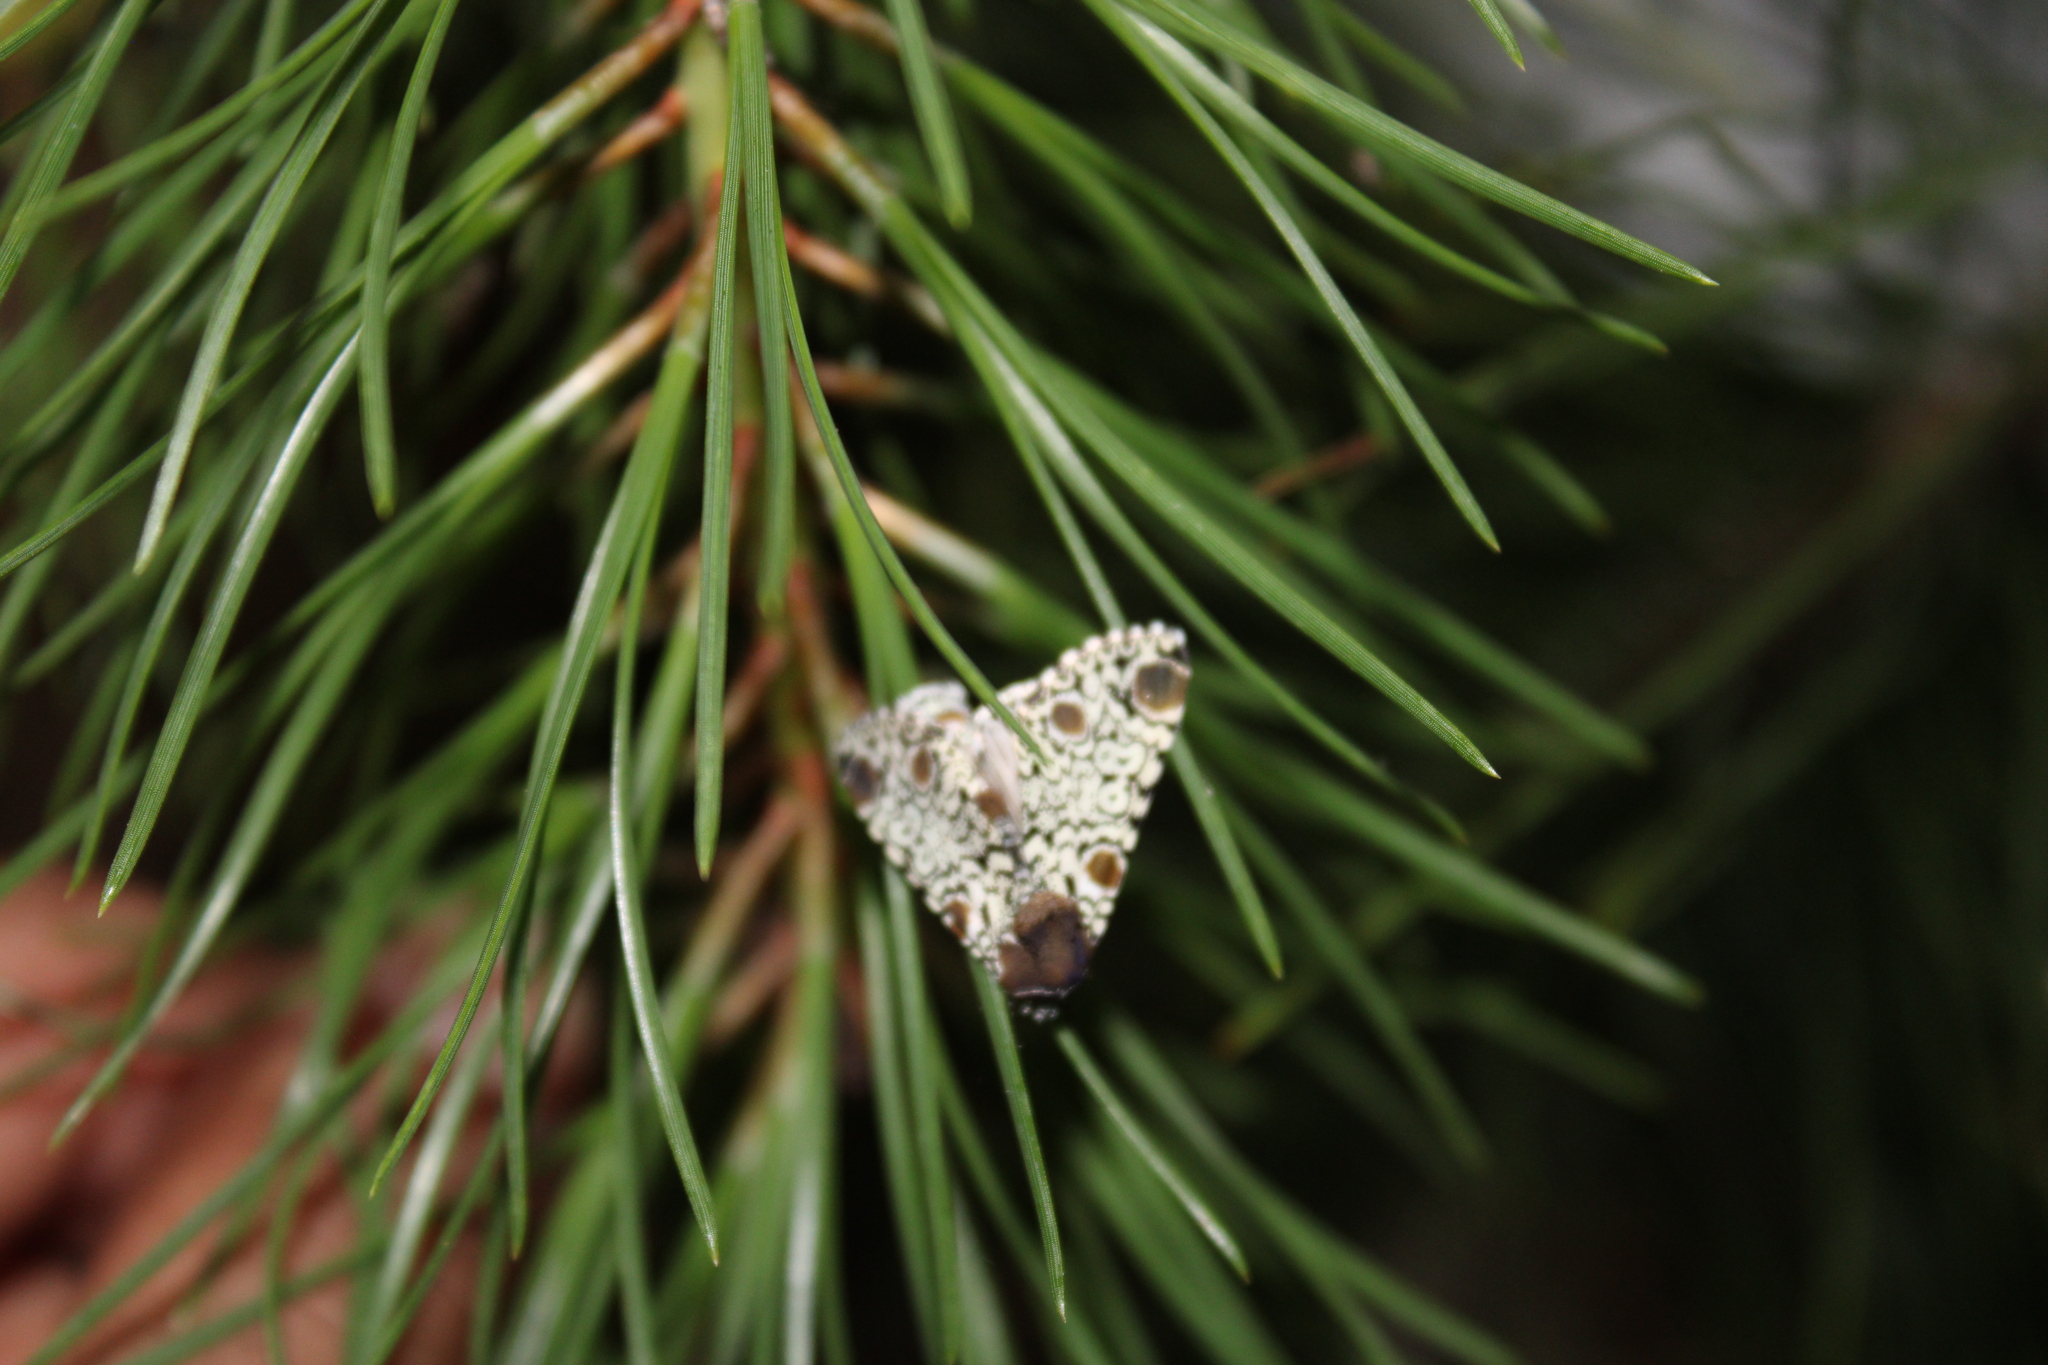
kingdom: Animalia
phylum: Arthropoda
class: Insecta
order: Lepidoptera
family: Noctuidae
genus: Harrisimemna
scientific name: Harrisimemna trisignata
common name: Harris threespot
